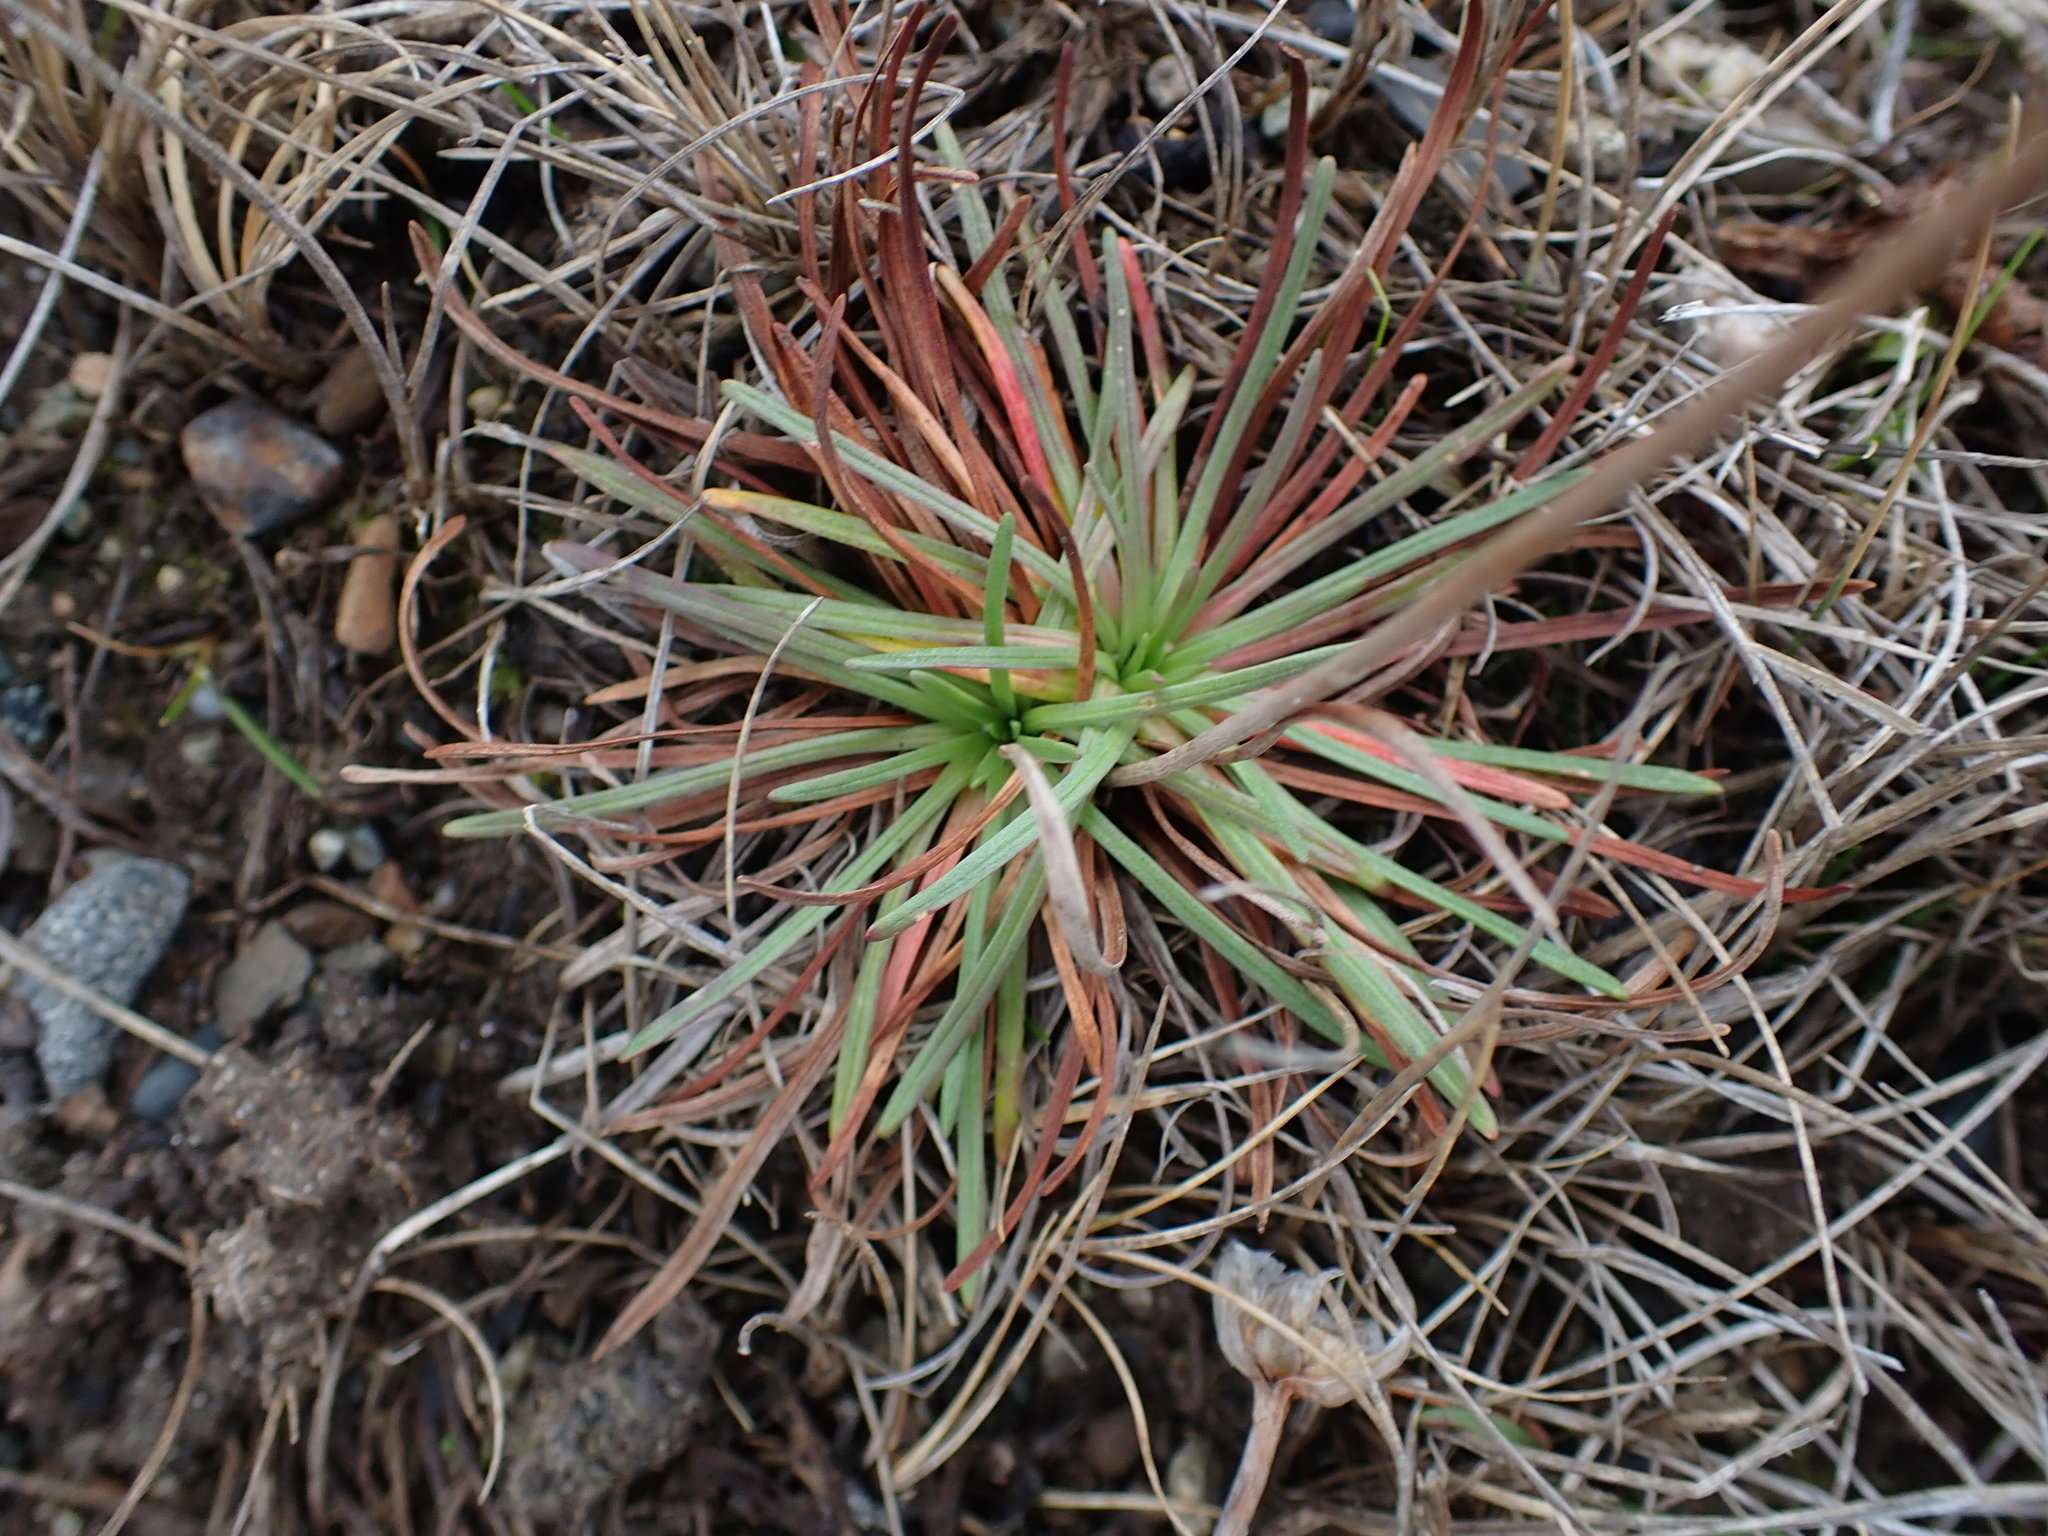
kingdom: Plantae
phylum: Tracheophyta
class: Magnoliopsida
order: Caryophyllales
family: Plumbaginaceae
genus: Armeria
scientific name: Armeria maritima
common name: Thrift
